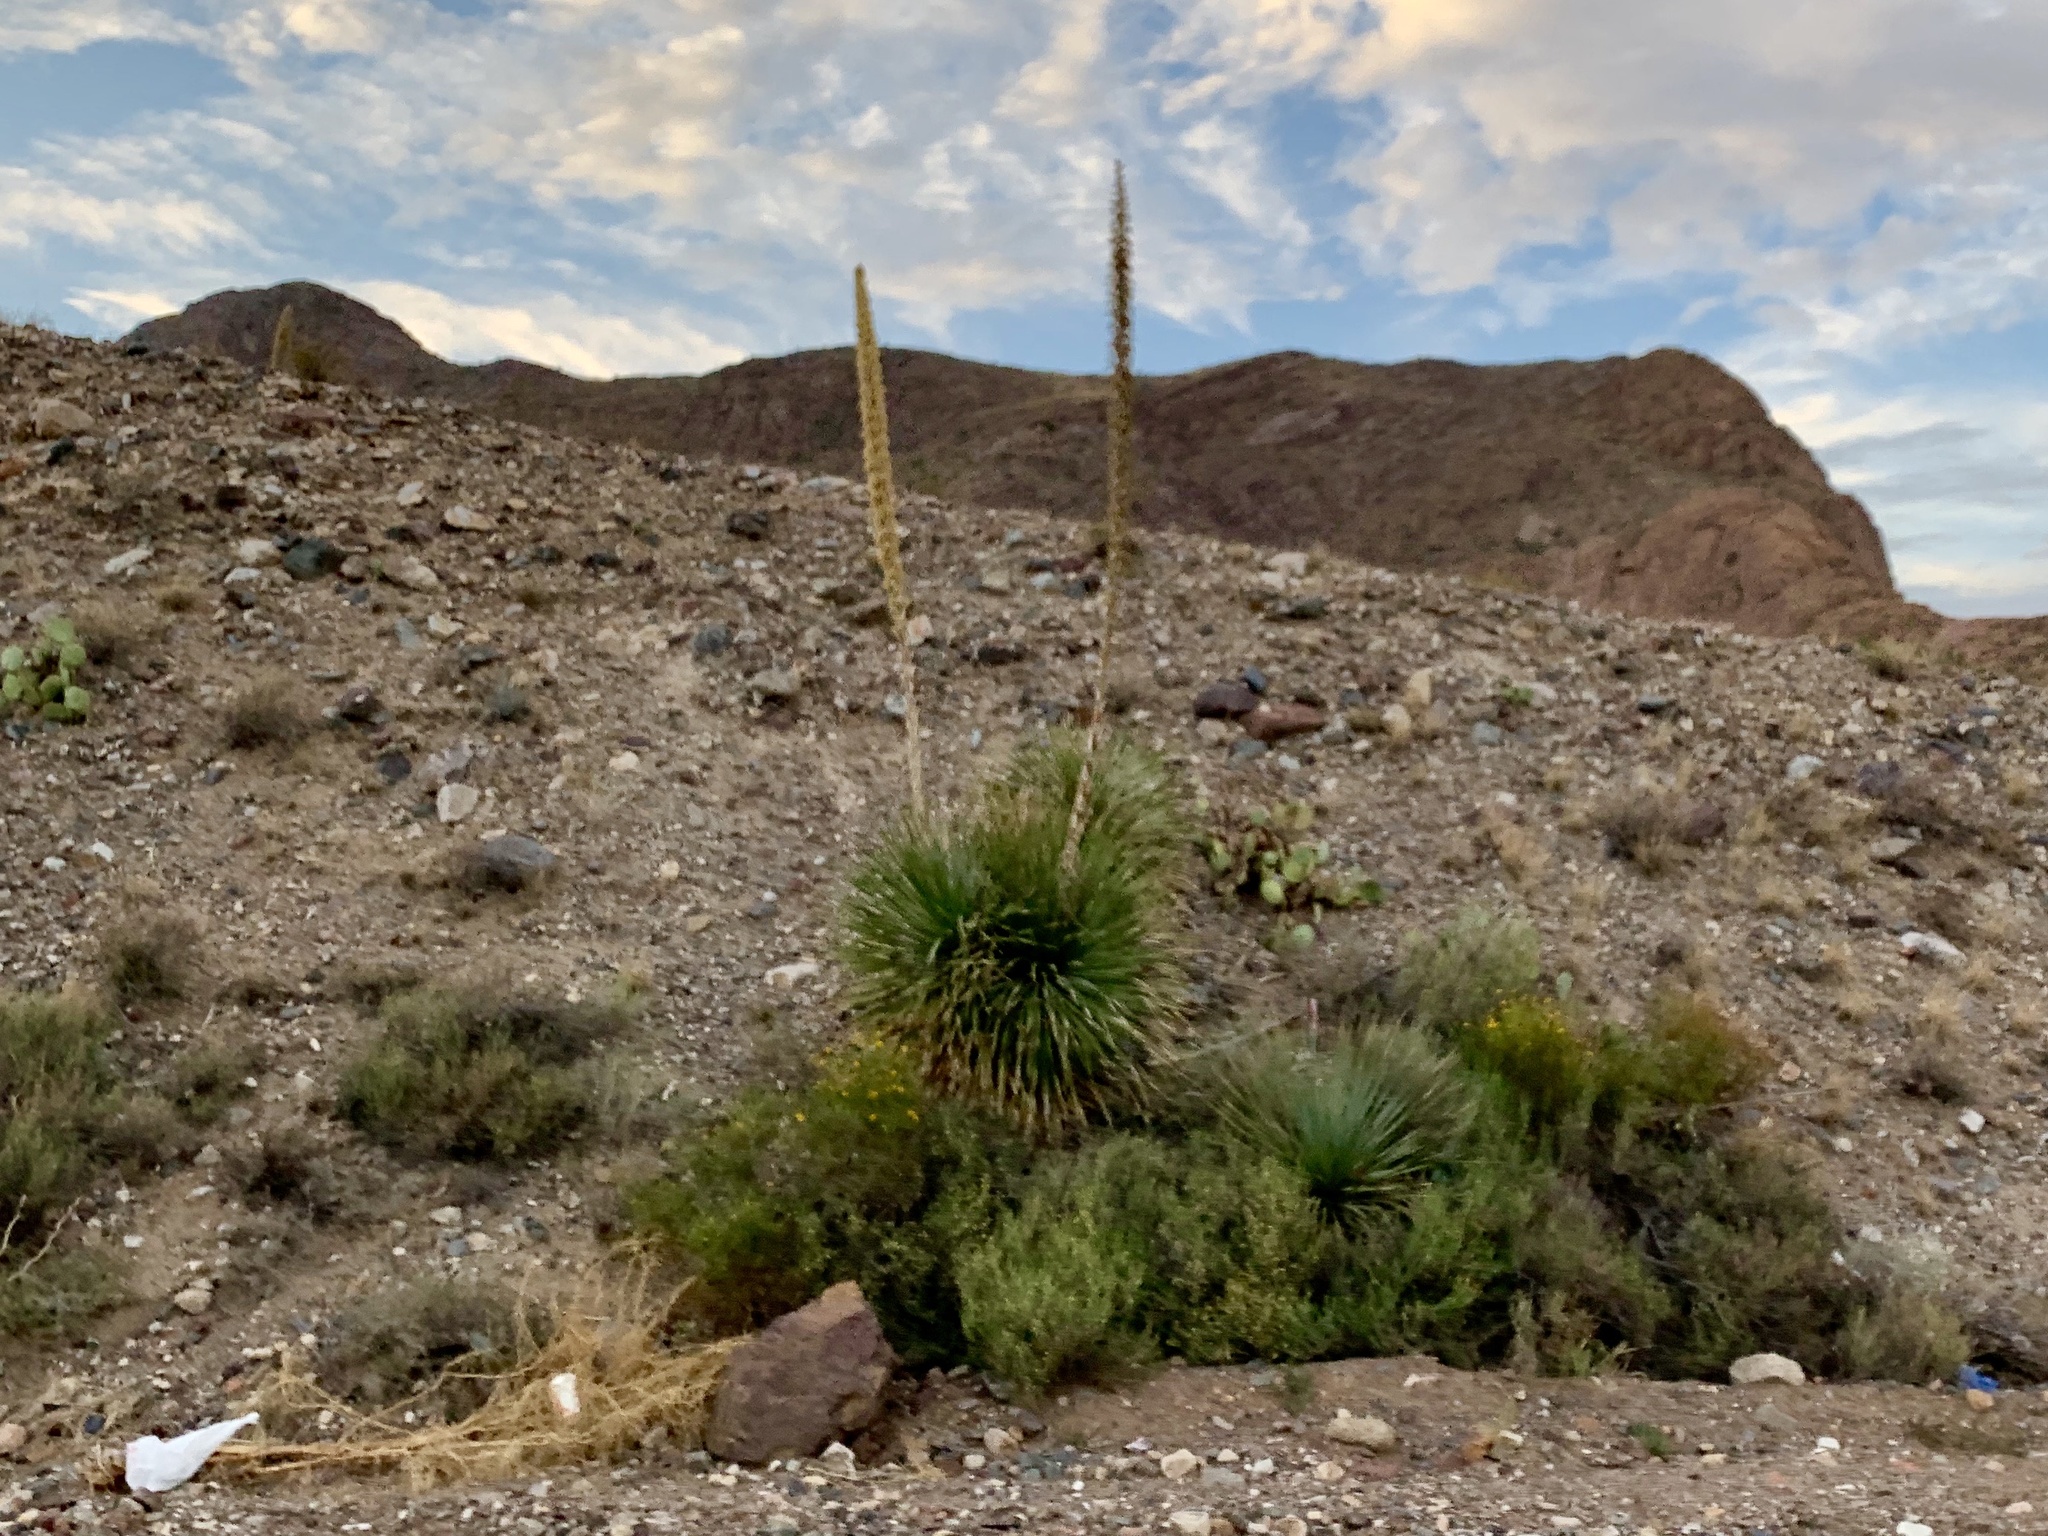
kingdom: Plantae
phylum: Tracheophyta
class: Liliopsida
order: Asparagales
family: Asparagaceae
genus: Dasylirion
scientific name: Dasylirion wheeleri
